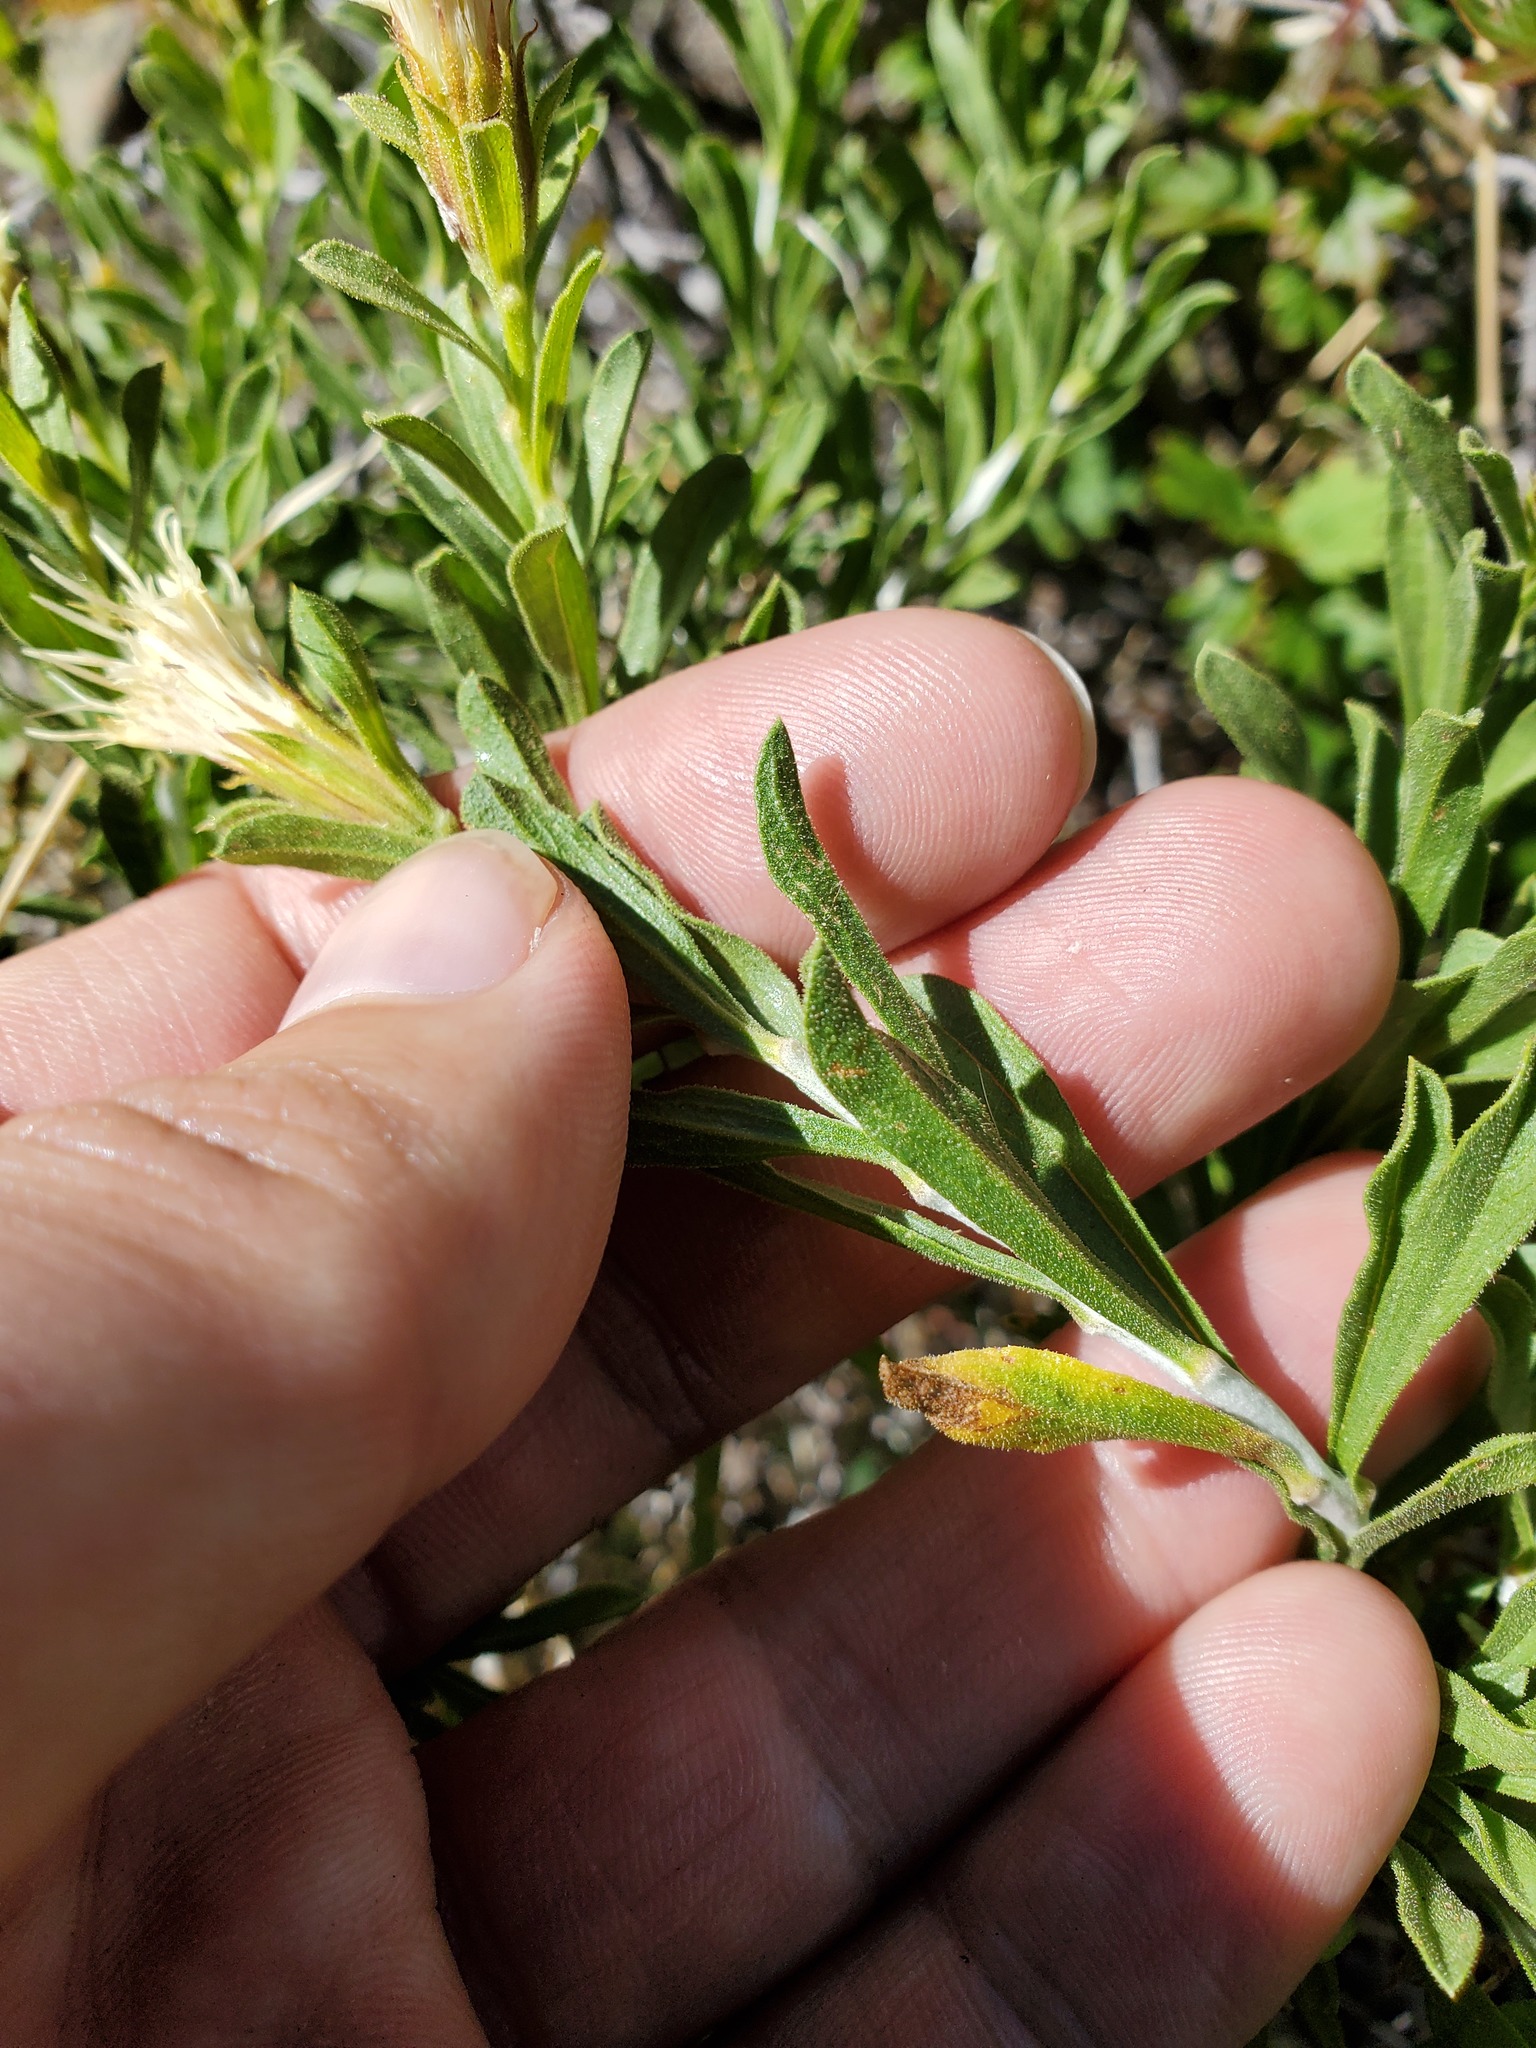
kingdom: Plantae
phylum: Tracheophyta
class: Magnoliopsida
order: Asterales
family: Asteraceae
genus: Ericameria
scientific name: Ericameria discoidea
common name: Sharp-scale goldenweed
